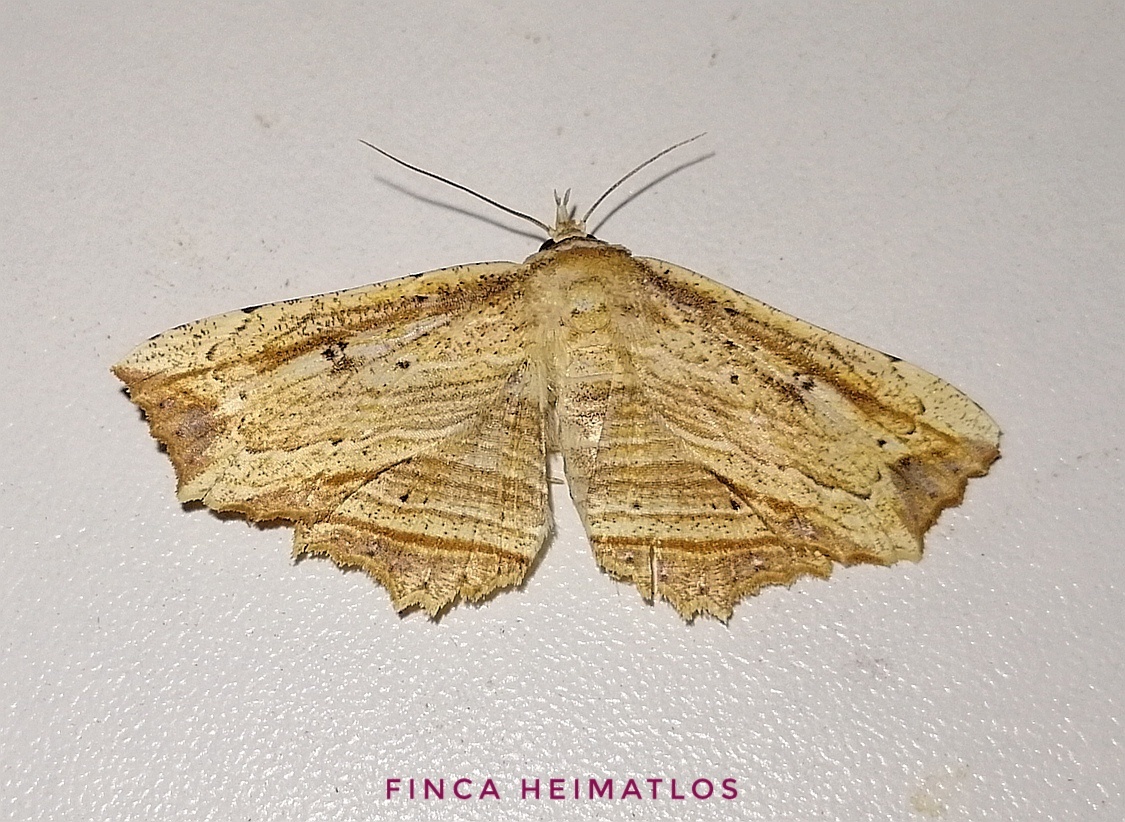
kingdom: Animalia
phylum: Arthropoda
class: Insecta
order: Lepidoptera
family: Erebidae
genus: Oroscopa
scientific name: Oroscopa variegata
